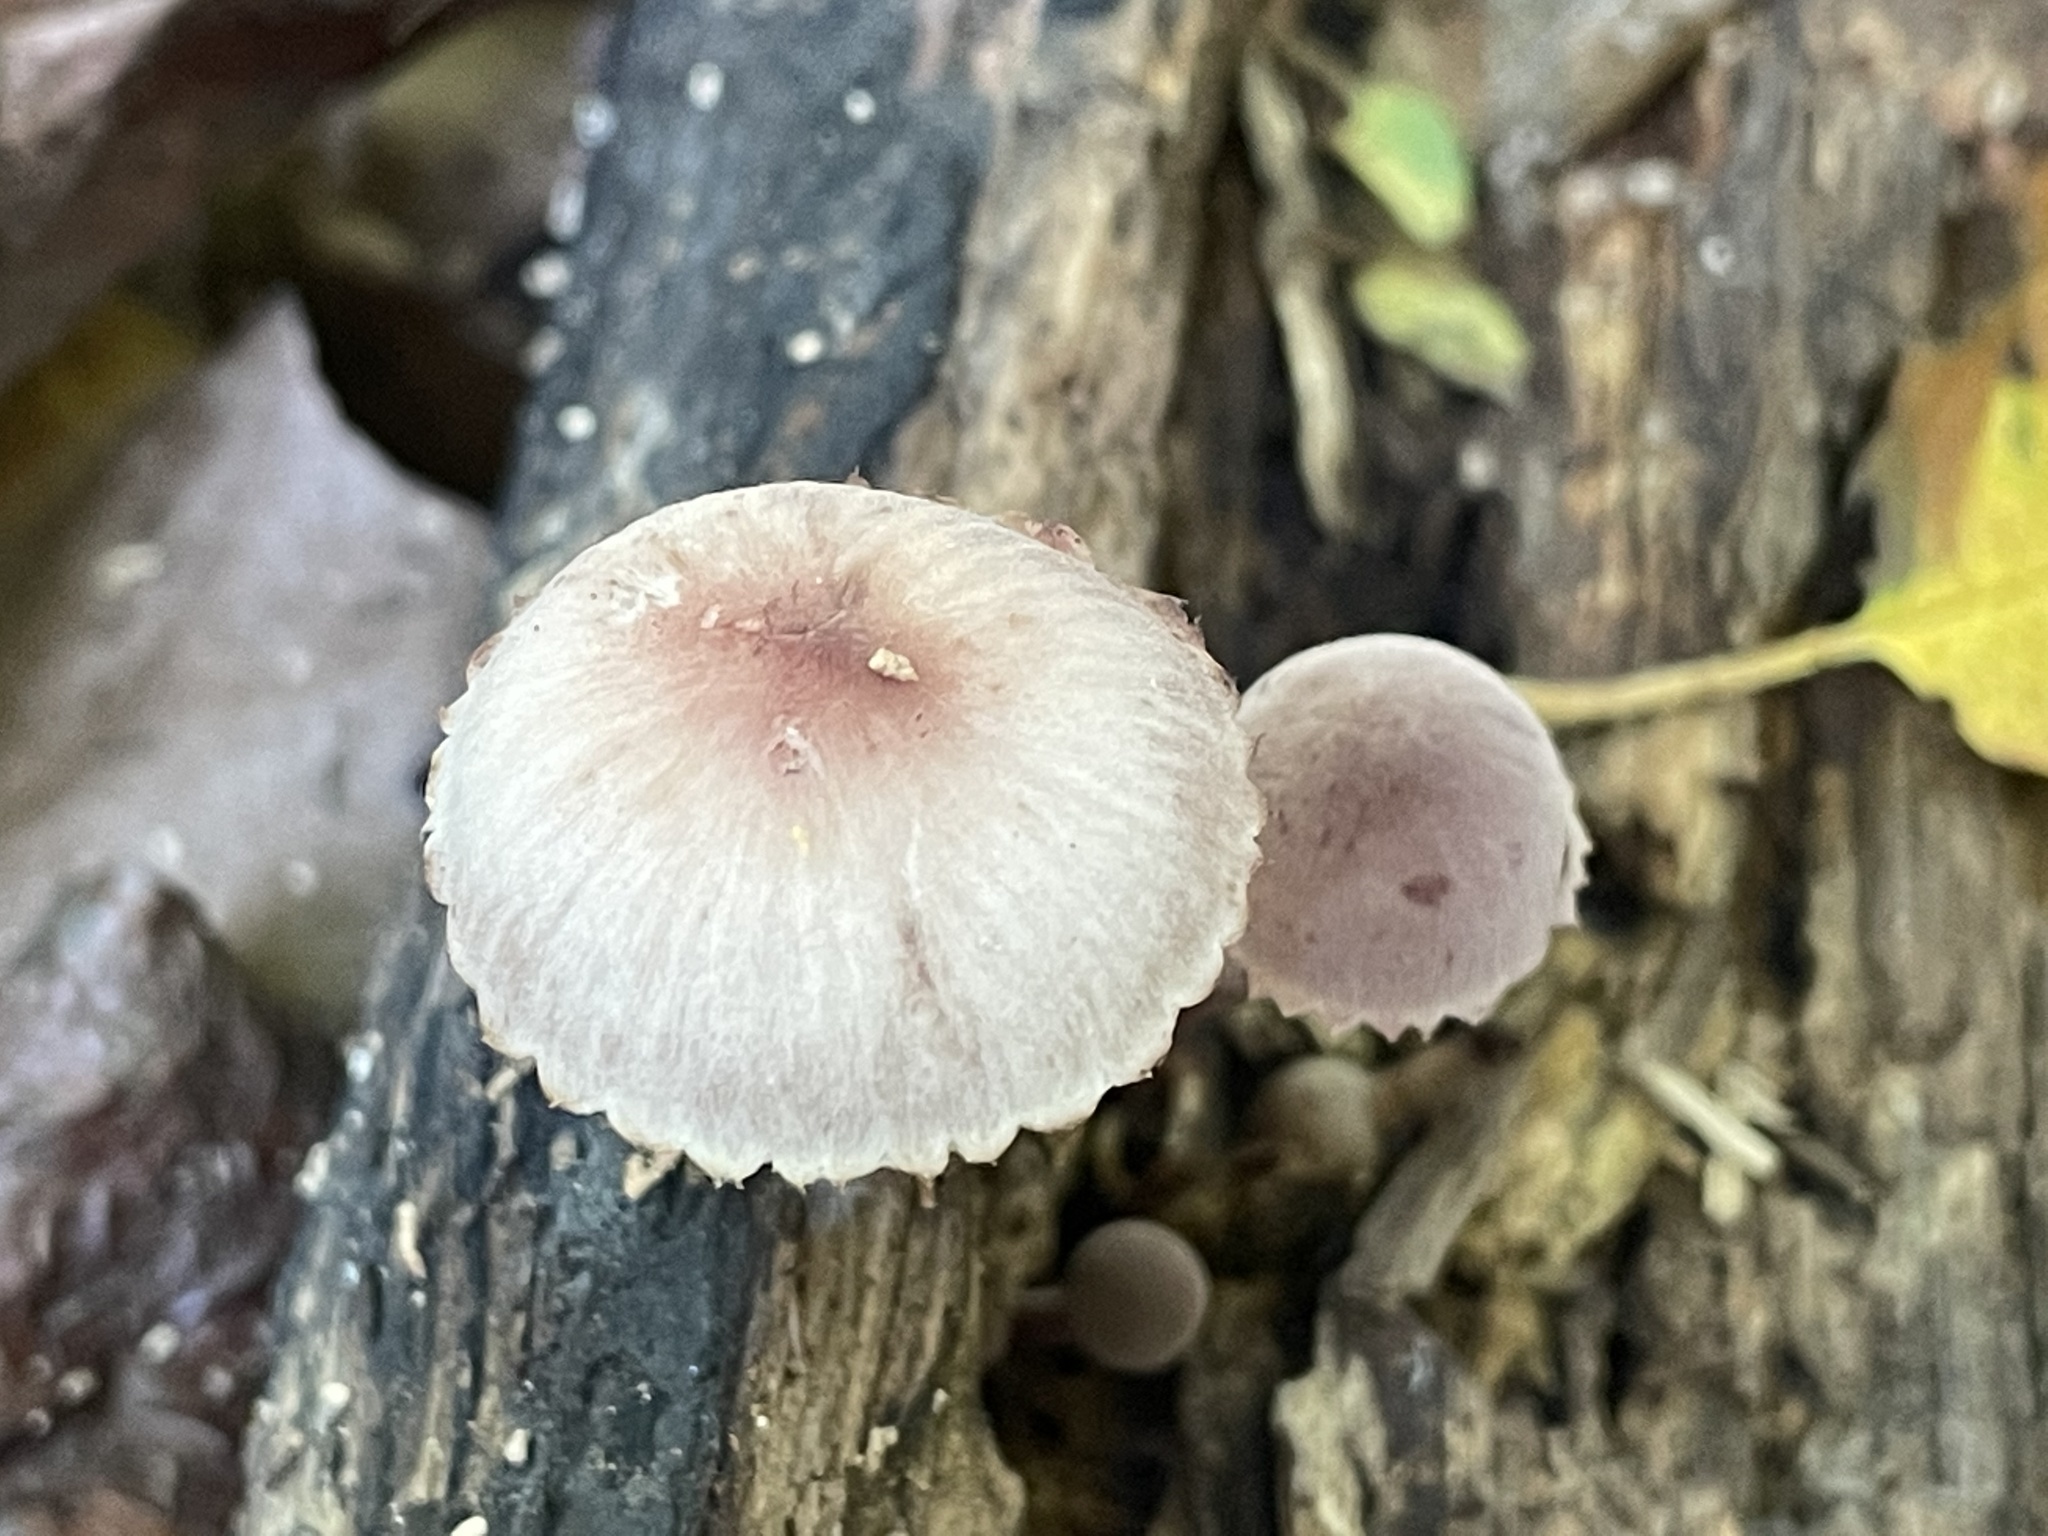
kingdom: Fungi
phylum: Basidiomycota
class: Agaricomycetes
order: Agaricales
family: Mycenaceae
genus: Mycena
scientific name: Mycena haematopus
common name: Burgundydrop bonnet
